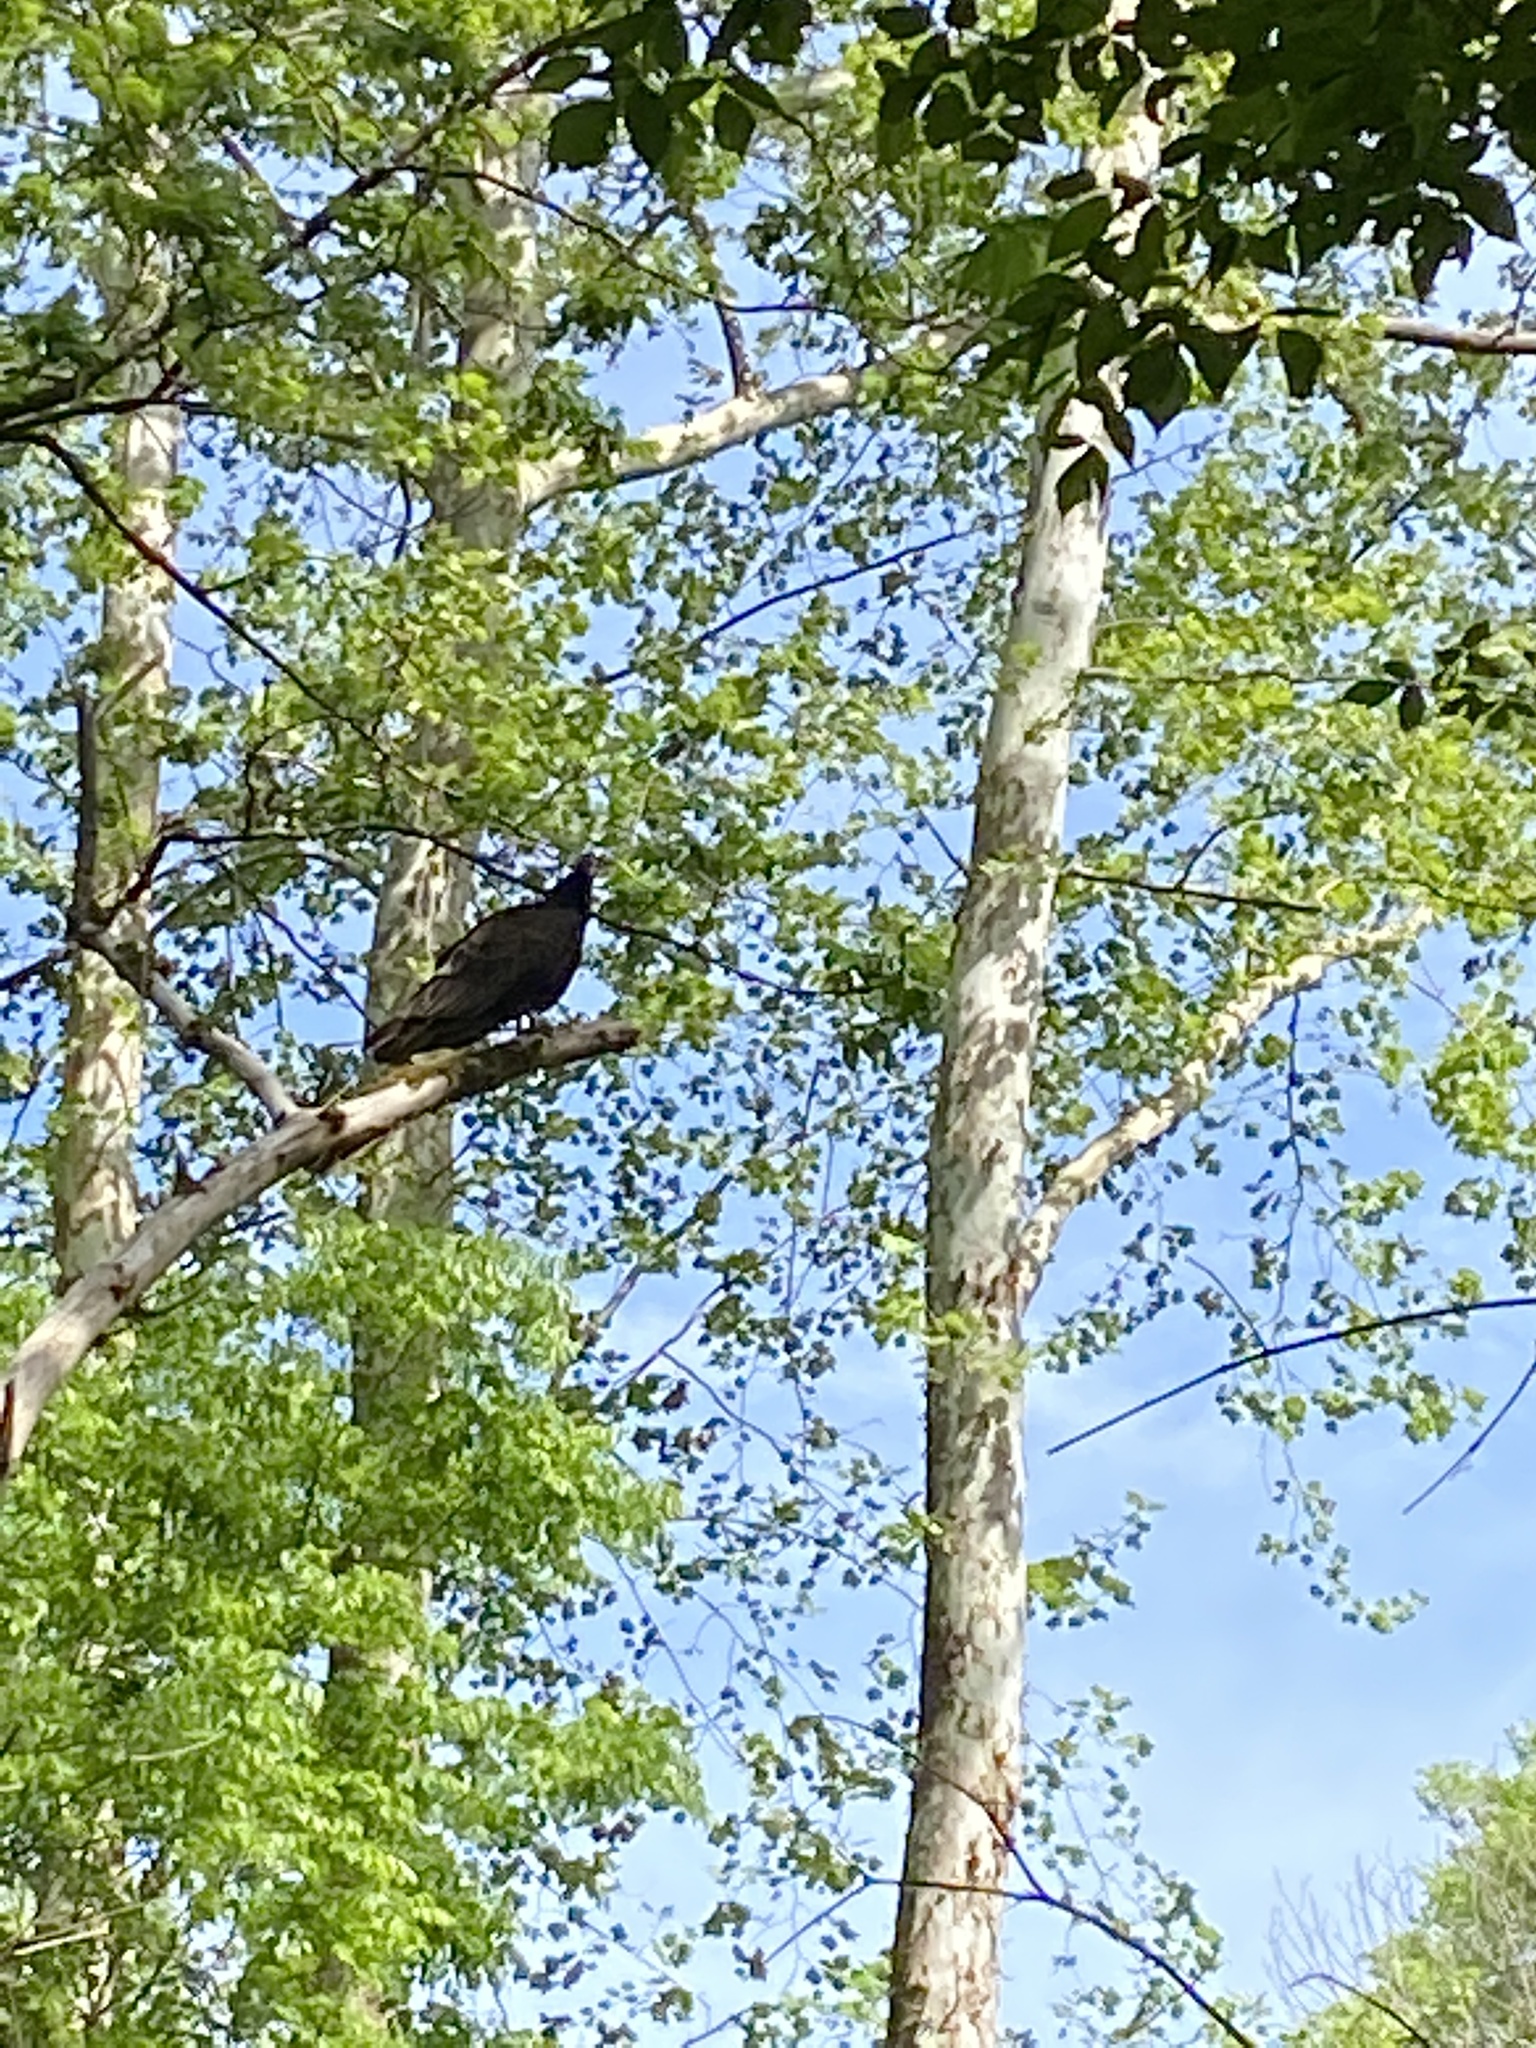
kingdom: Animalia
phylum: Chordata
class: Aves
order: Accipitriformes
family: Cathartidae
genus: Cathartes
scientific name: Cathartes aura
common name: Turkey vulture
